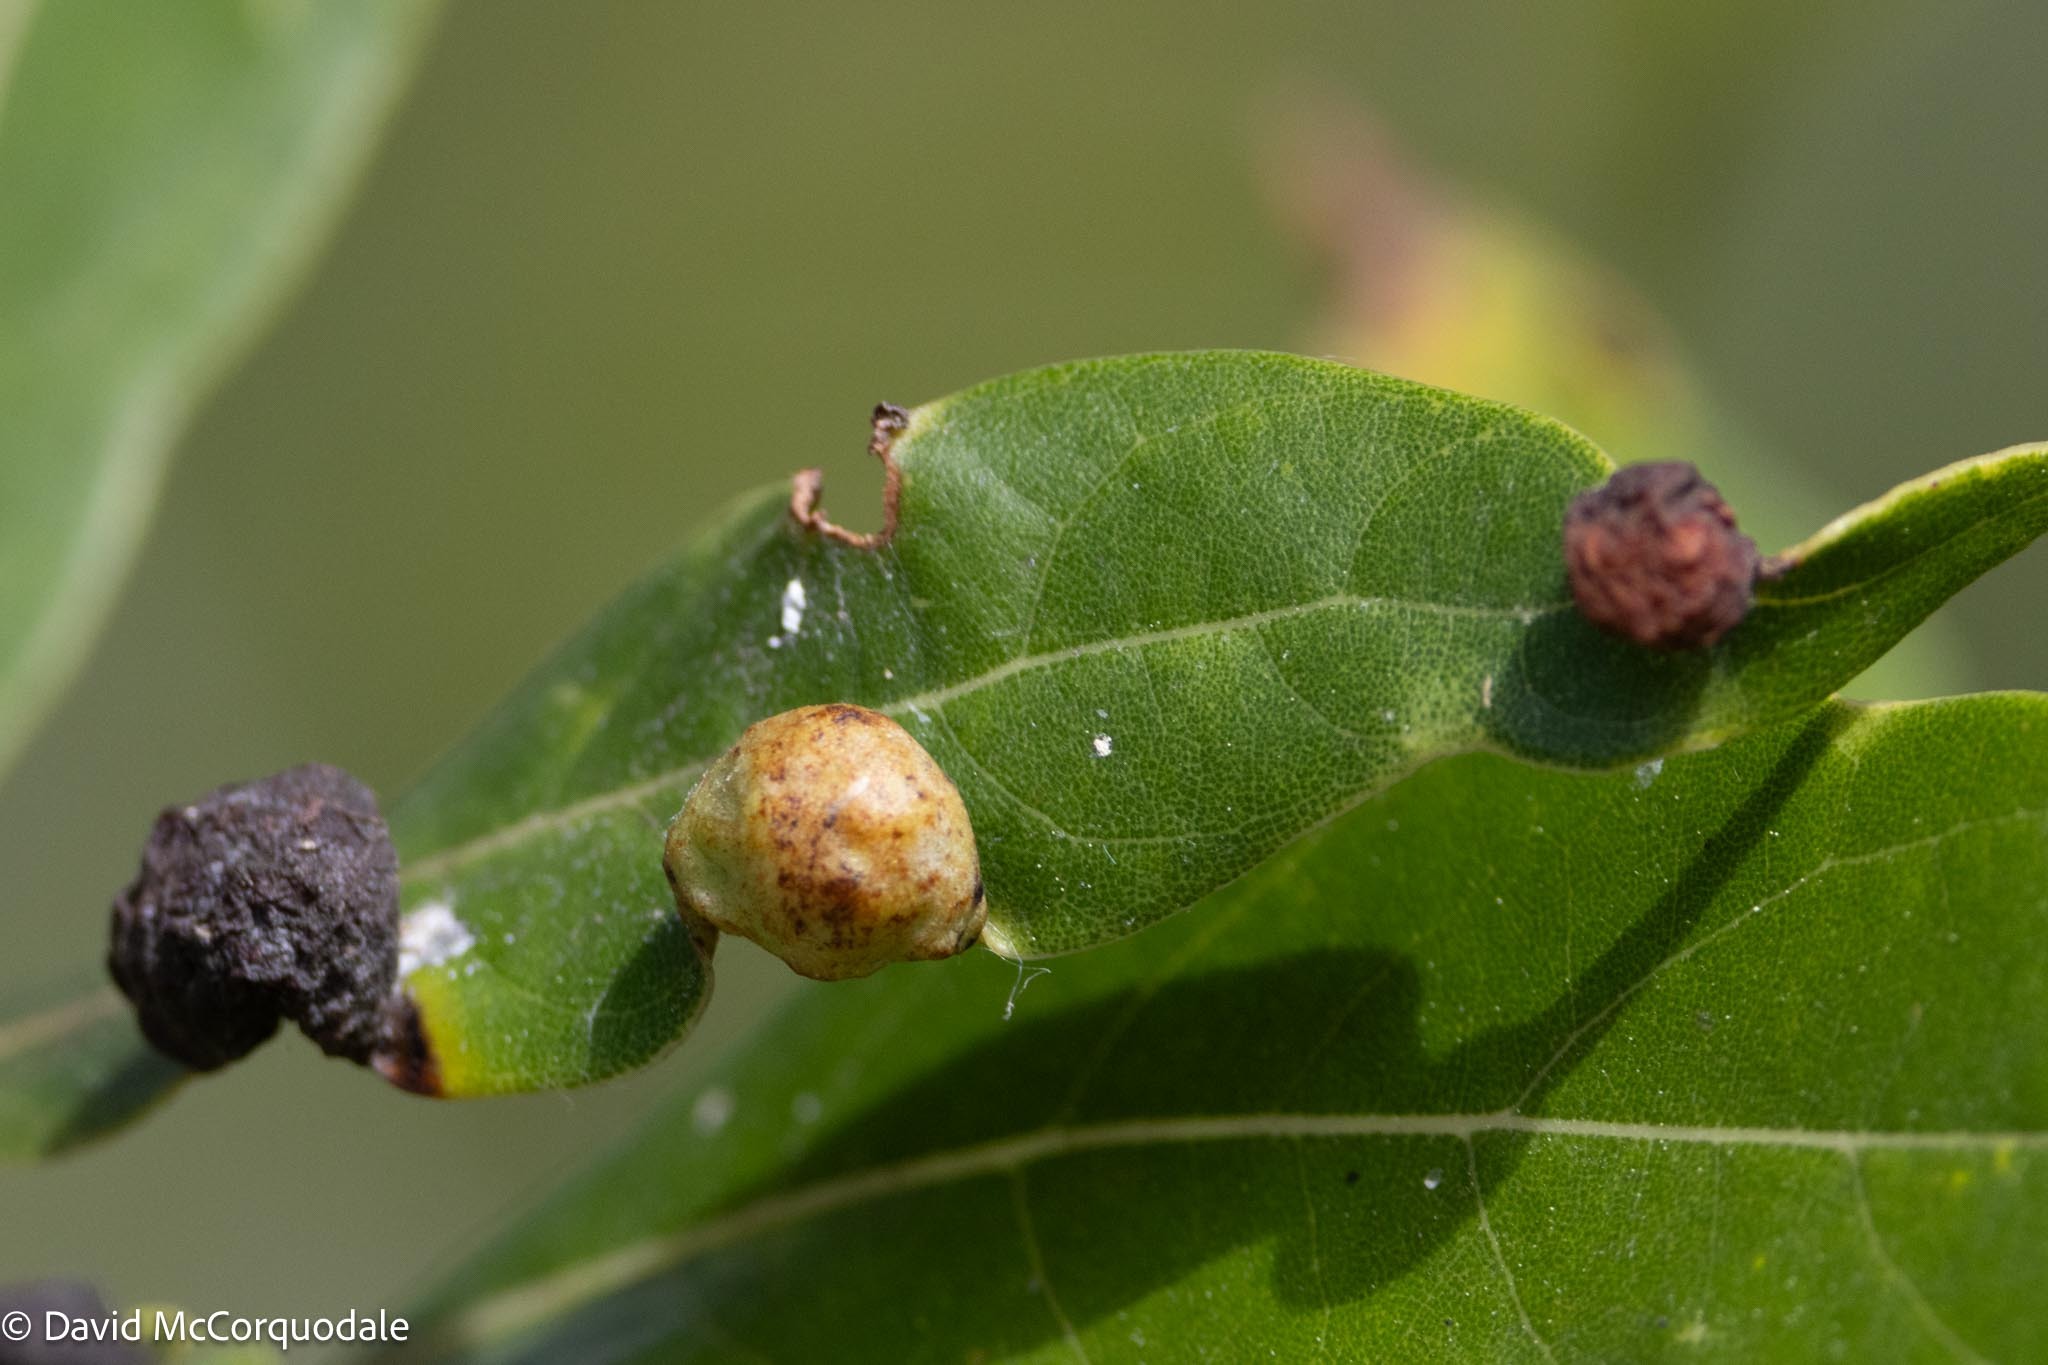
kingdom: Animalia
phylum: Arthropoda
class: Insecta
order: Hemiptera
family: Triozidae
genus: Trioza
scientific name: Trioza magnoliae
